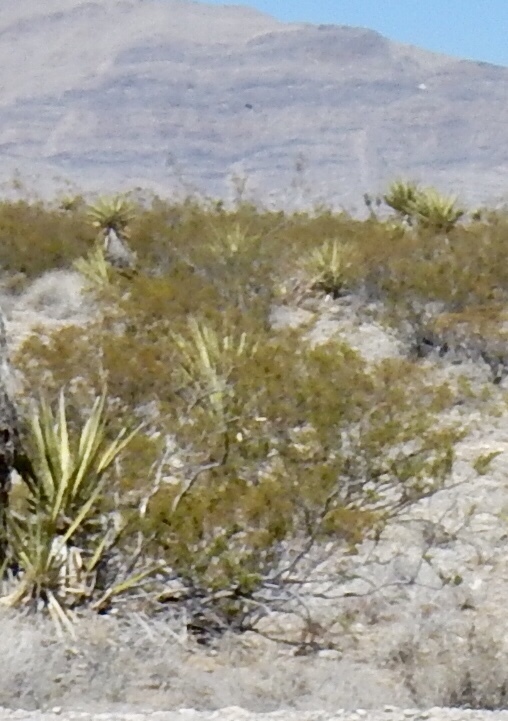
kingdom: Plantae
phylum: Tracheophyta
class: Magnoliopsida
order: Zygophyllales
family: Zygophyllaceae
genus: Larrea
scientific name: Larrea tridentata
